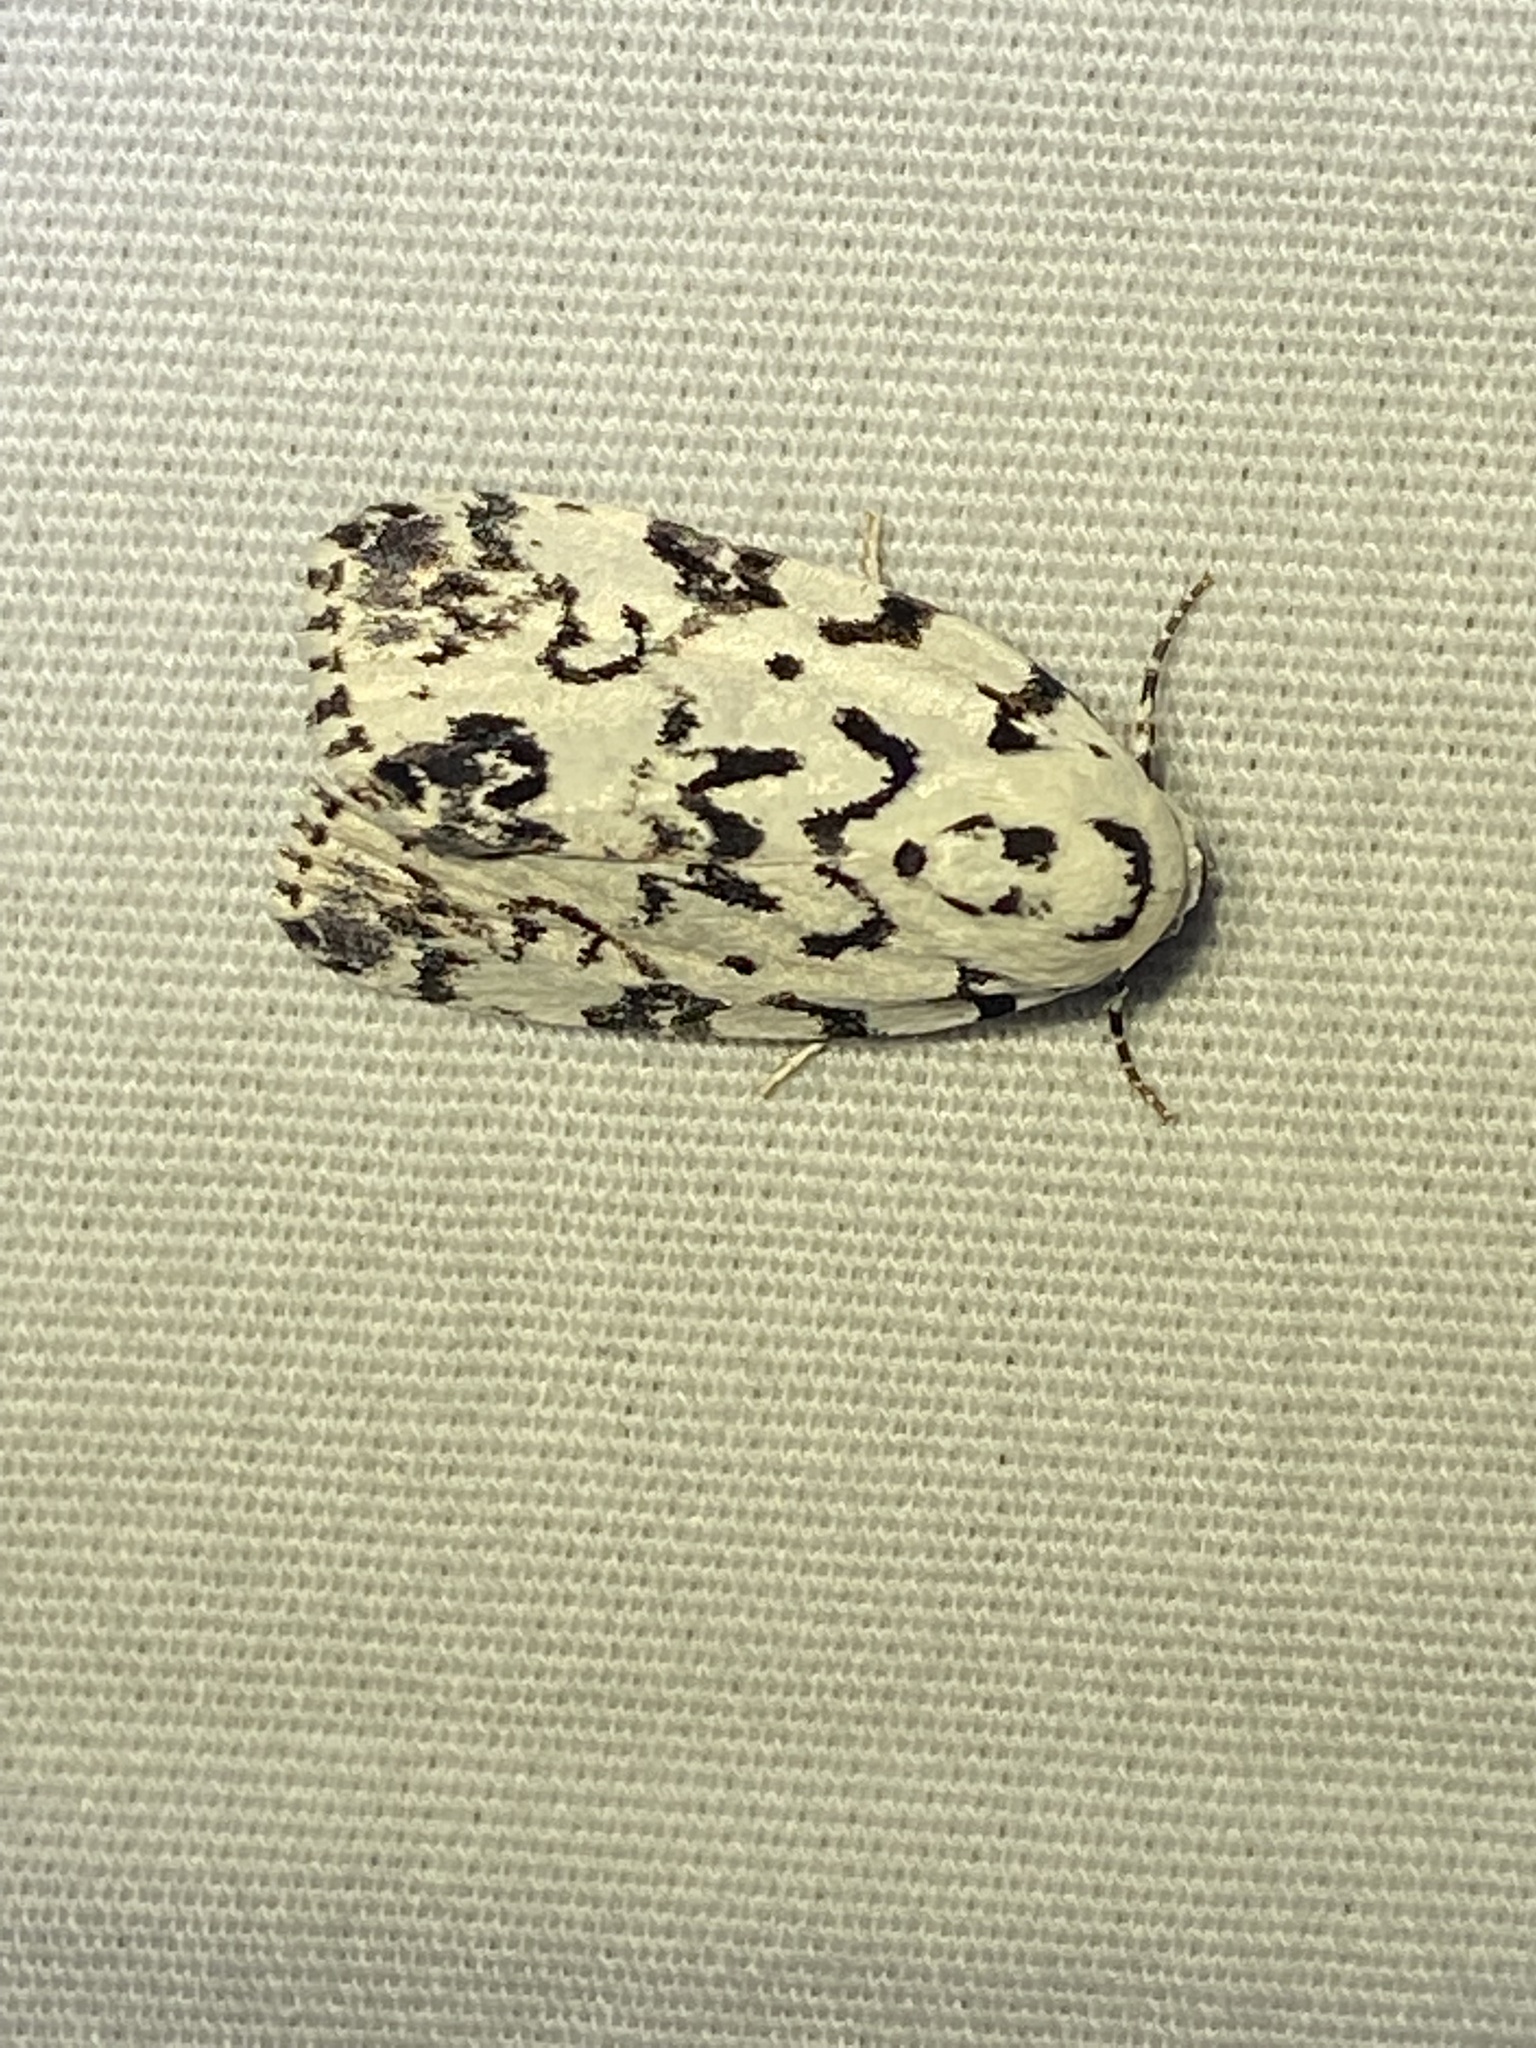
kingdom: Animalia
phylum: Arthropoda
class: Insecta
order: Lepidoptera
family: Noctuidae
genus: Polygrammate
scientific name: Polygrammate hebraeicum
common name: Hebrew moth
